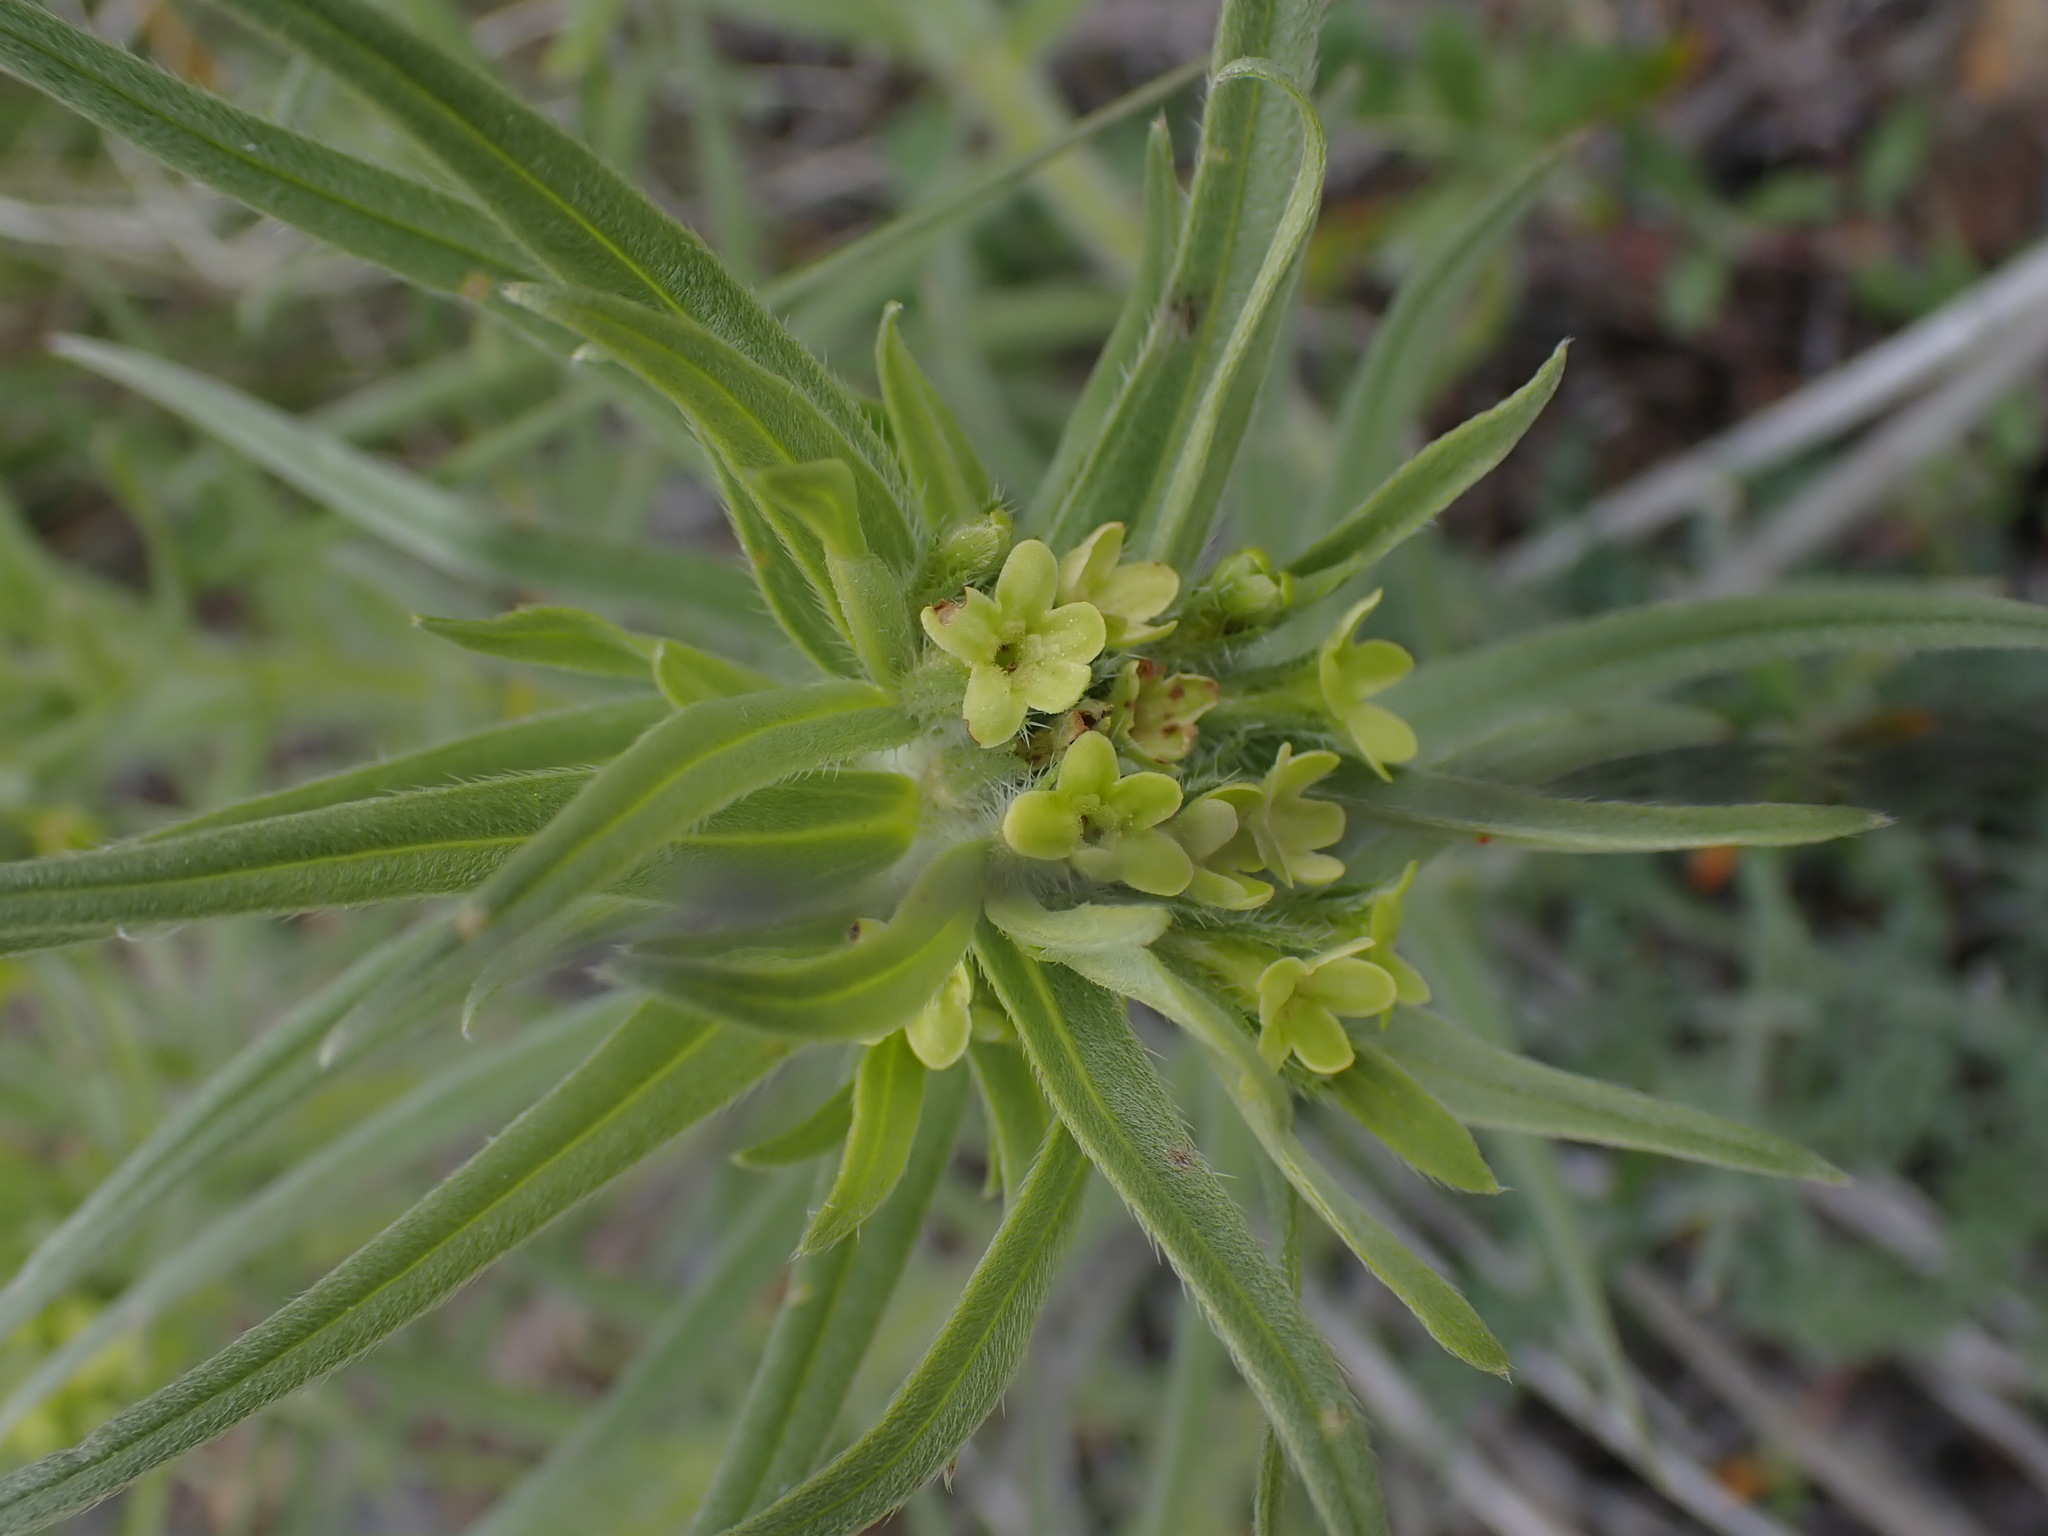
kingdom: Plantae
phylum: Tracheophyta
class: Magnoliopsida
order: Boraginales
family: Boraginaceae
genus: Lithospermum
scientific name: Lithospermum ruderale
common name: Western gromwell
